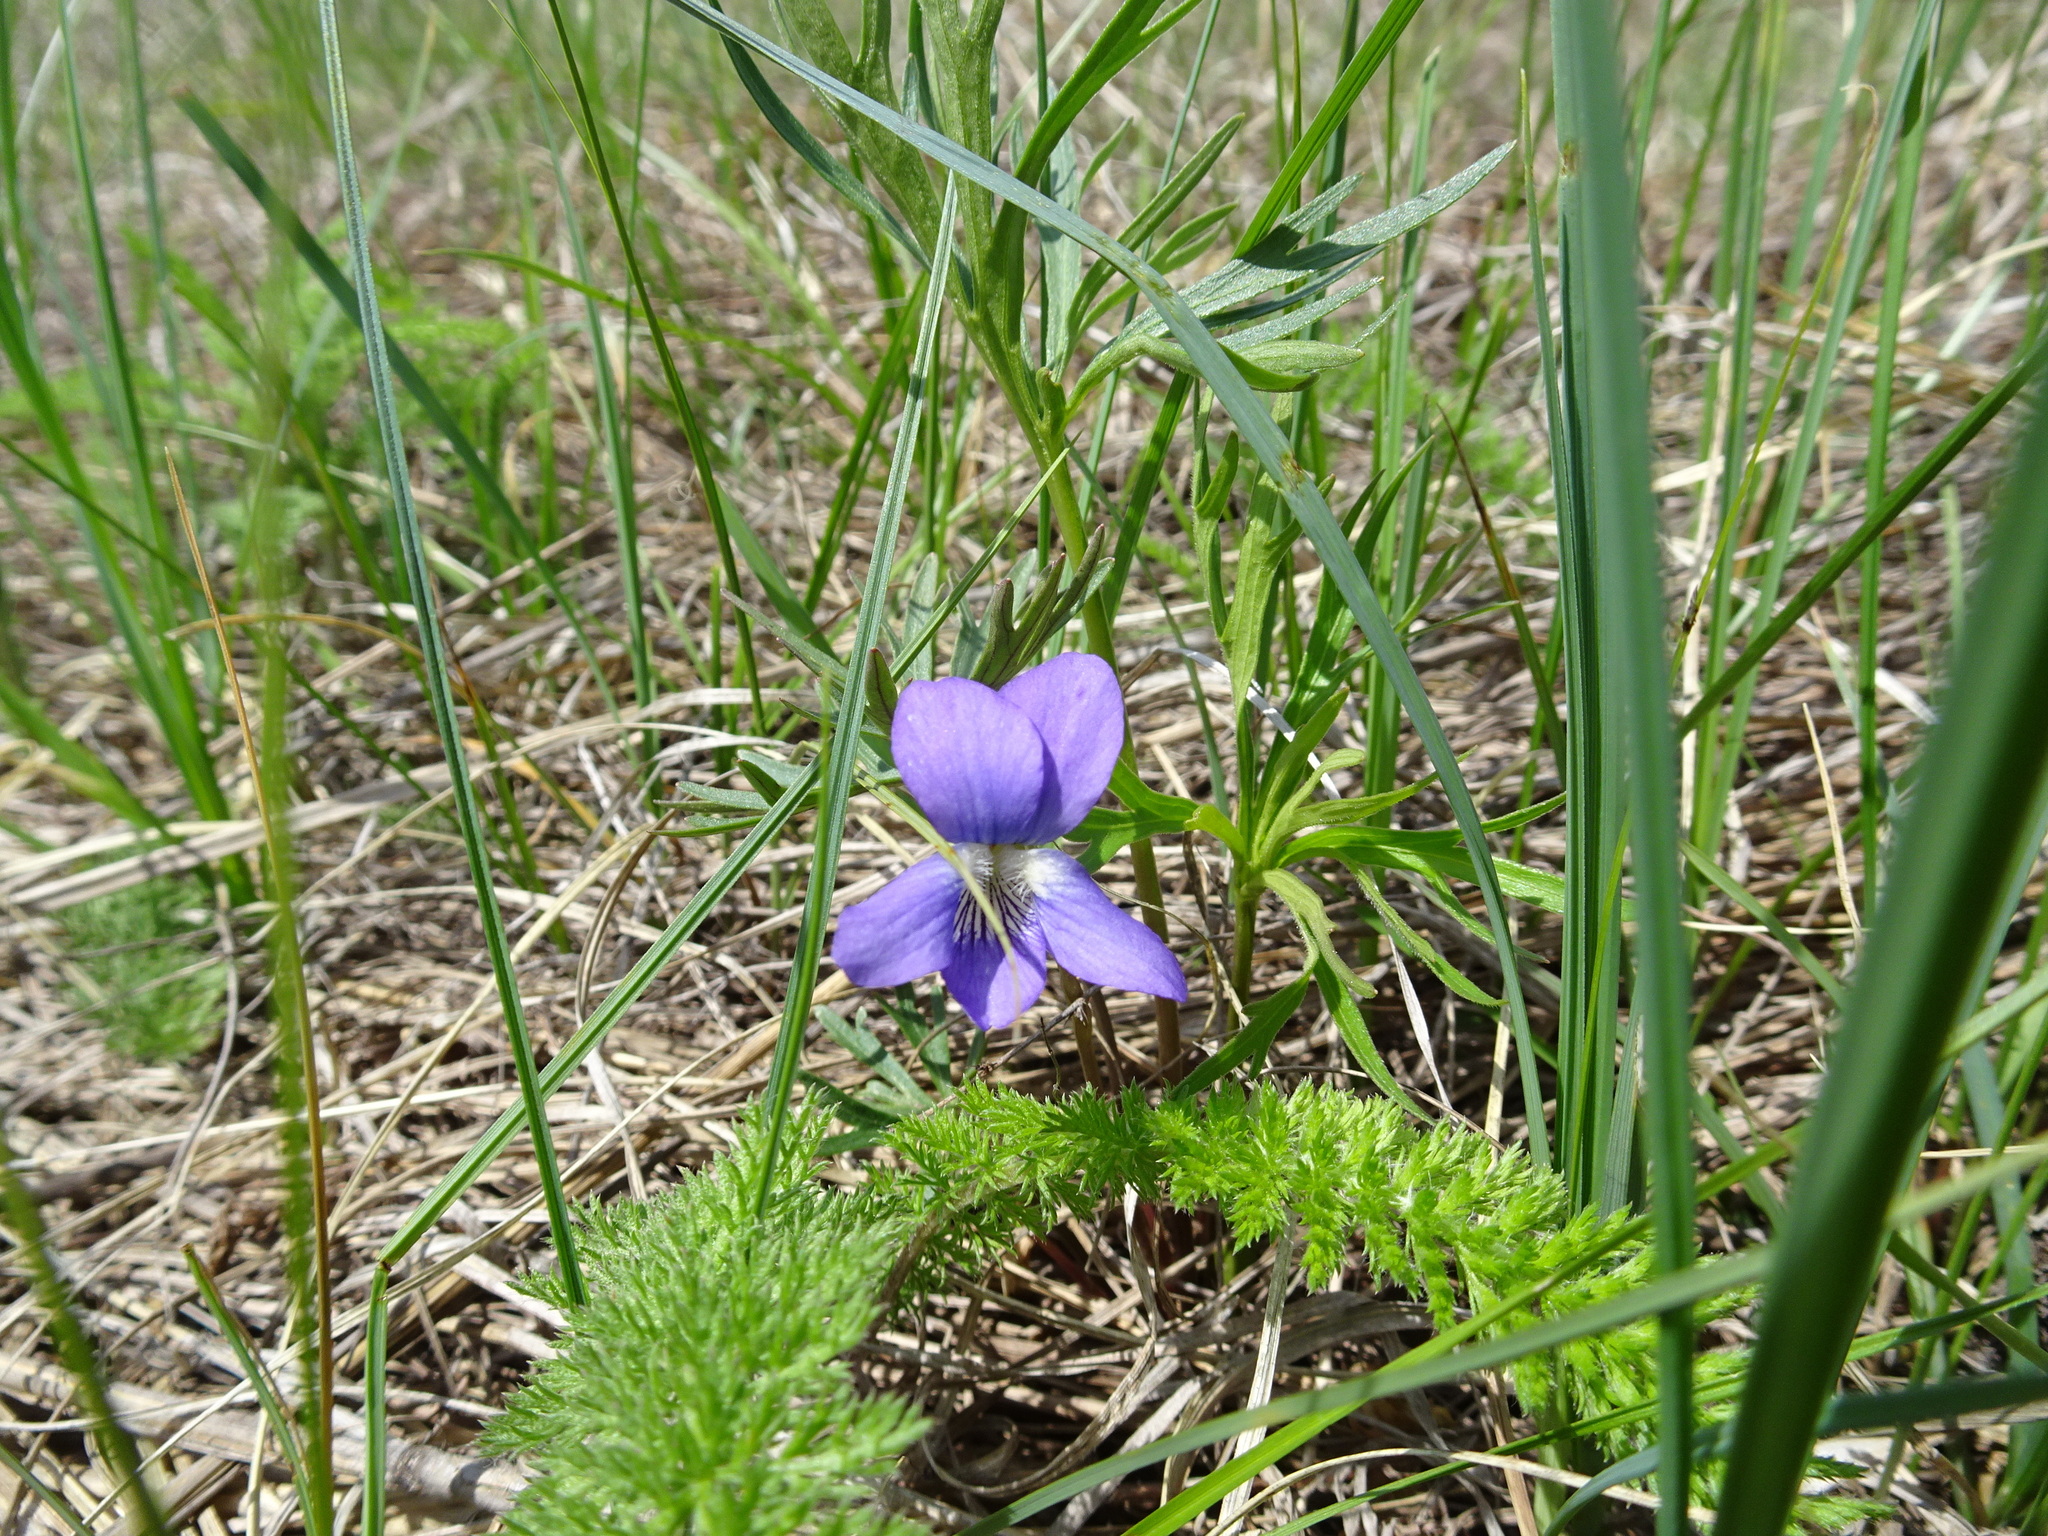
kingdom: Plantae
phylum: Tracheophyta
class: Magnoliopsida
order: Malpighiales
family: Violaceae
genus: Viola
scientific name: Viola pedatifida
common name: Prairie violet
